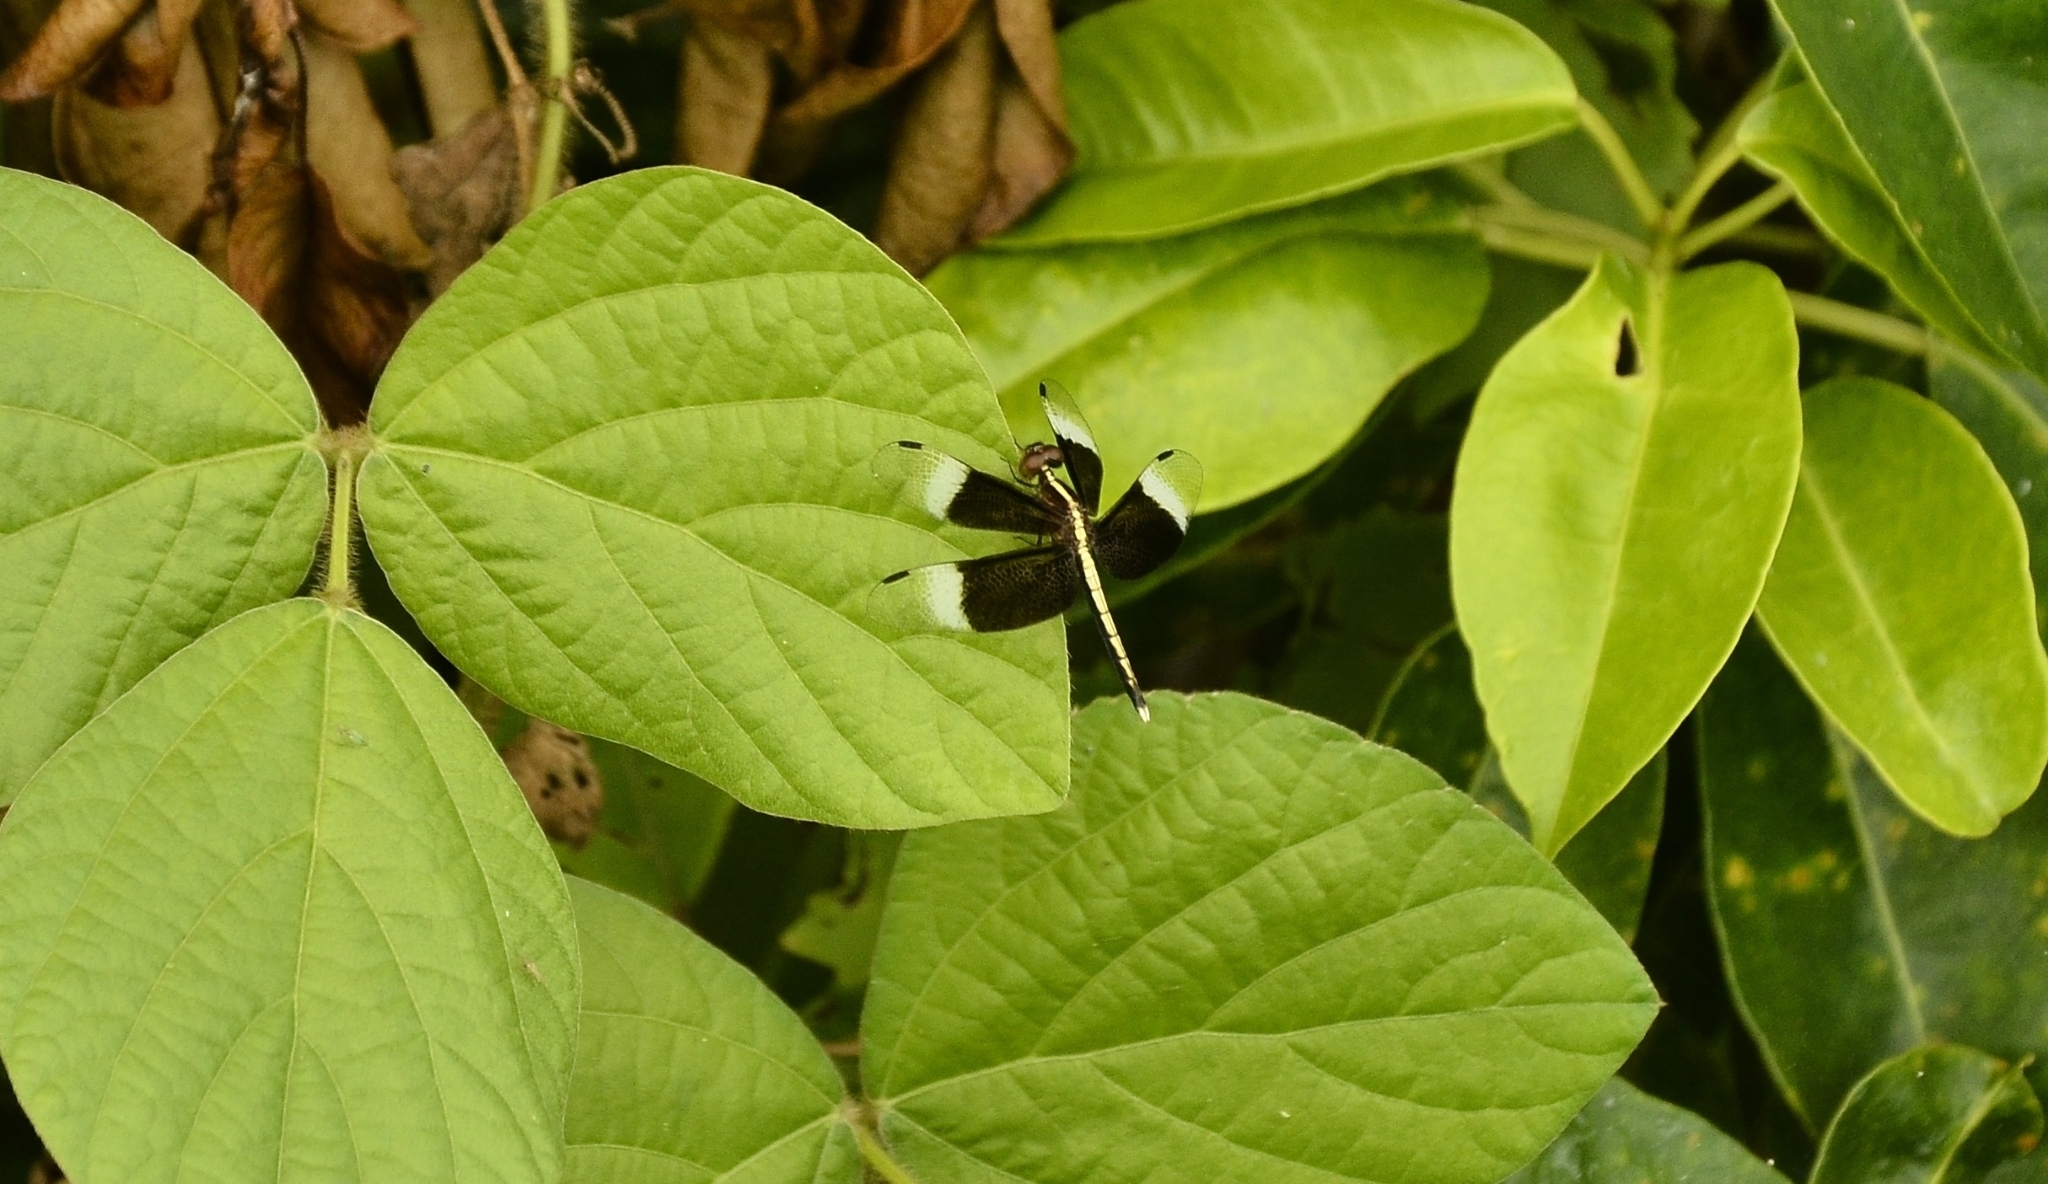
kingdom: Animalia
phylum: Arthropoda
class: Insecta
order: Odonata
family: Libellulidae
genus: Neurothemis
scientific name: Neurothemis tullia
